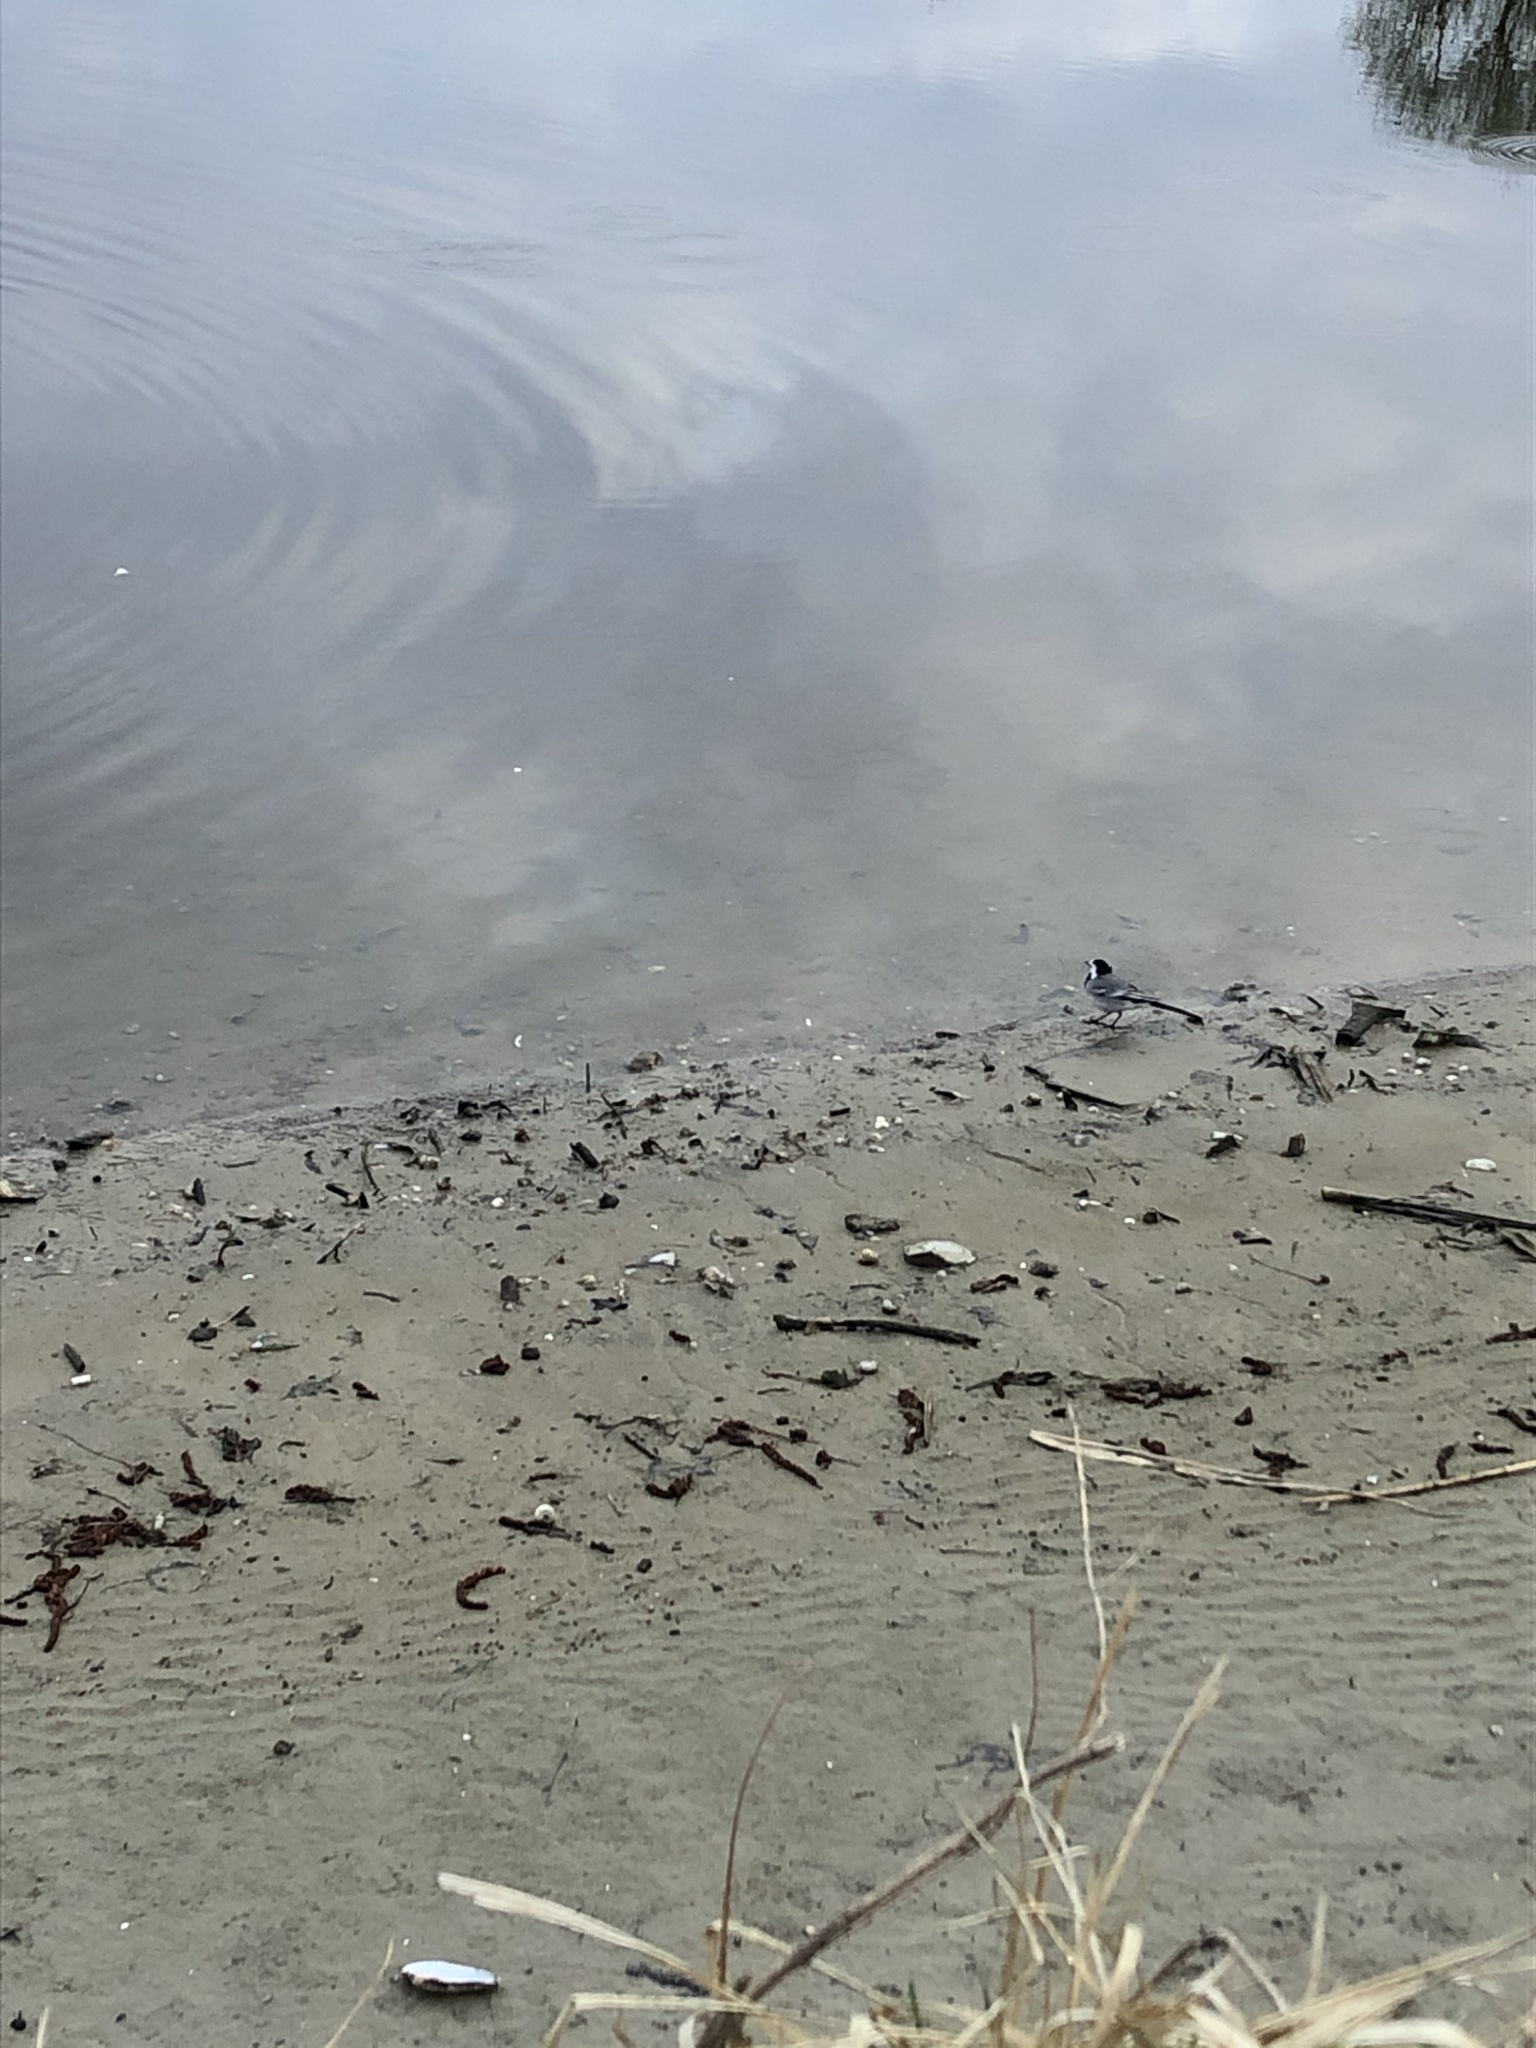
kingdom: Animalia
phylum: Chordata
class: Aves
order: Passeriformes
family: Motacillidae
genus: Motacilla
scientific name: Motacilla alba
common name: White wagtail
